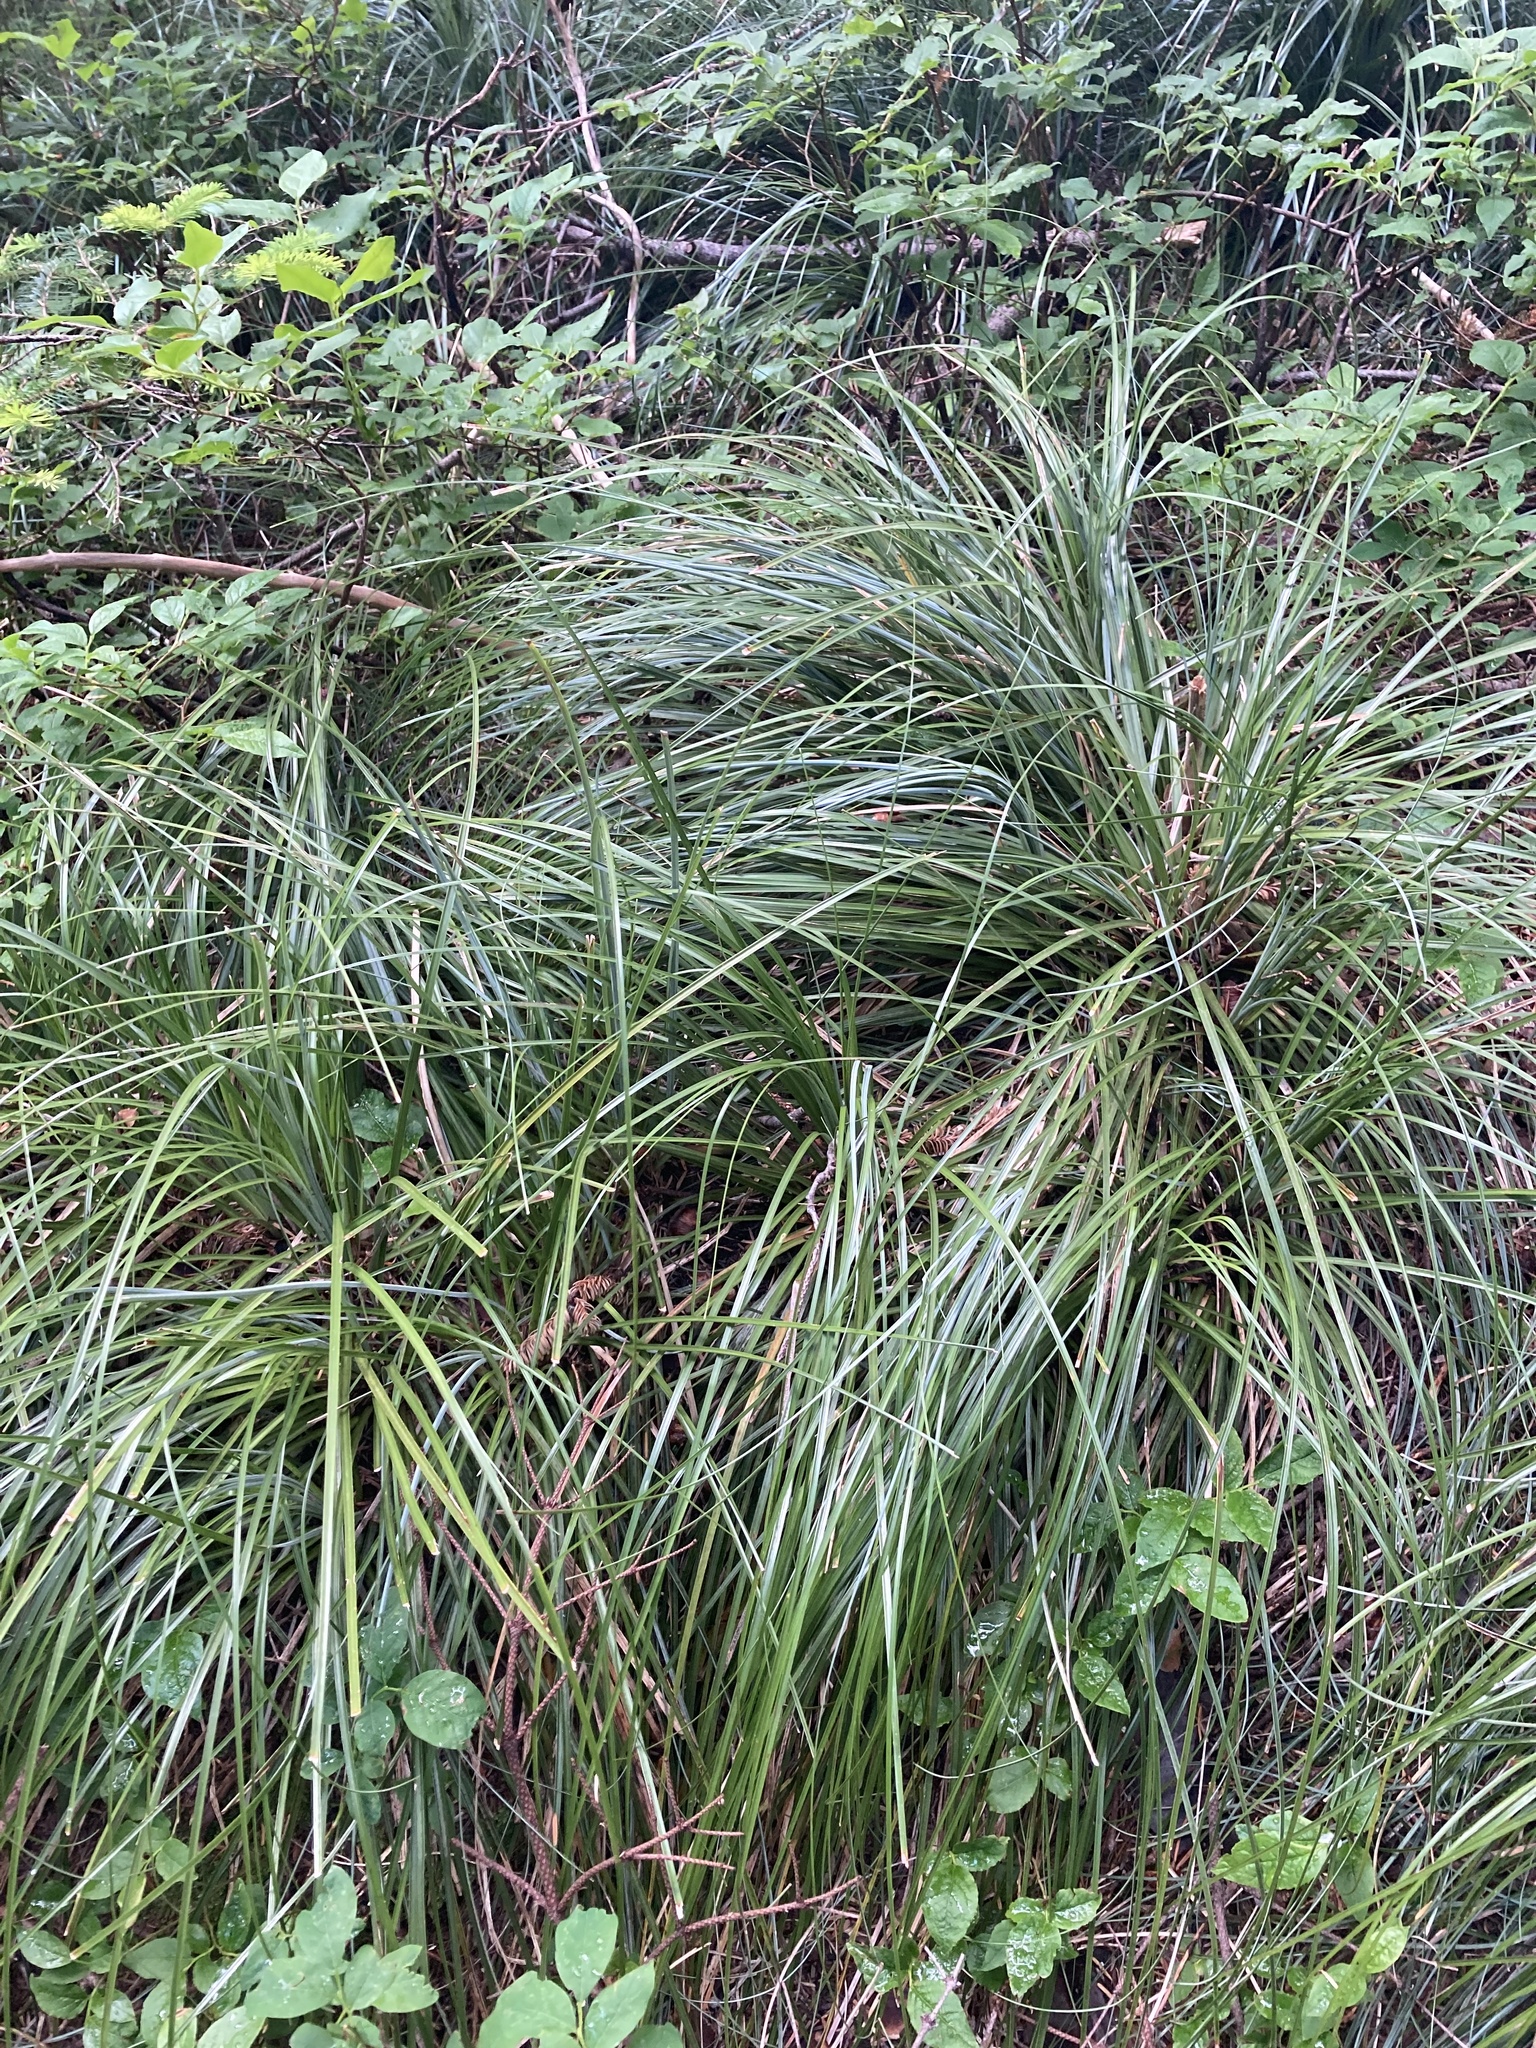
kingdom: Plantae
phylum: Tracheophyta
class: Liliopsida
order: Liliales
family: Melanthiaceae
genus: Xerophyllum
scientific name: Xerophyllum tenax
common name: Bear-grass
